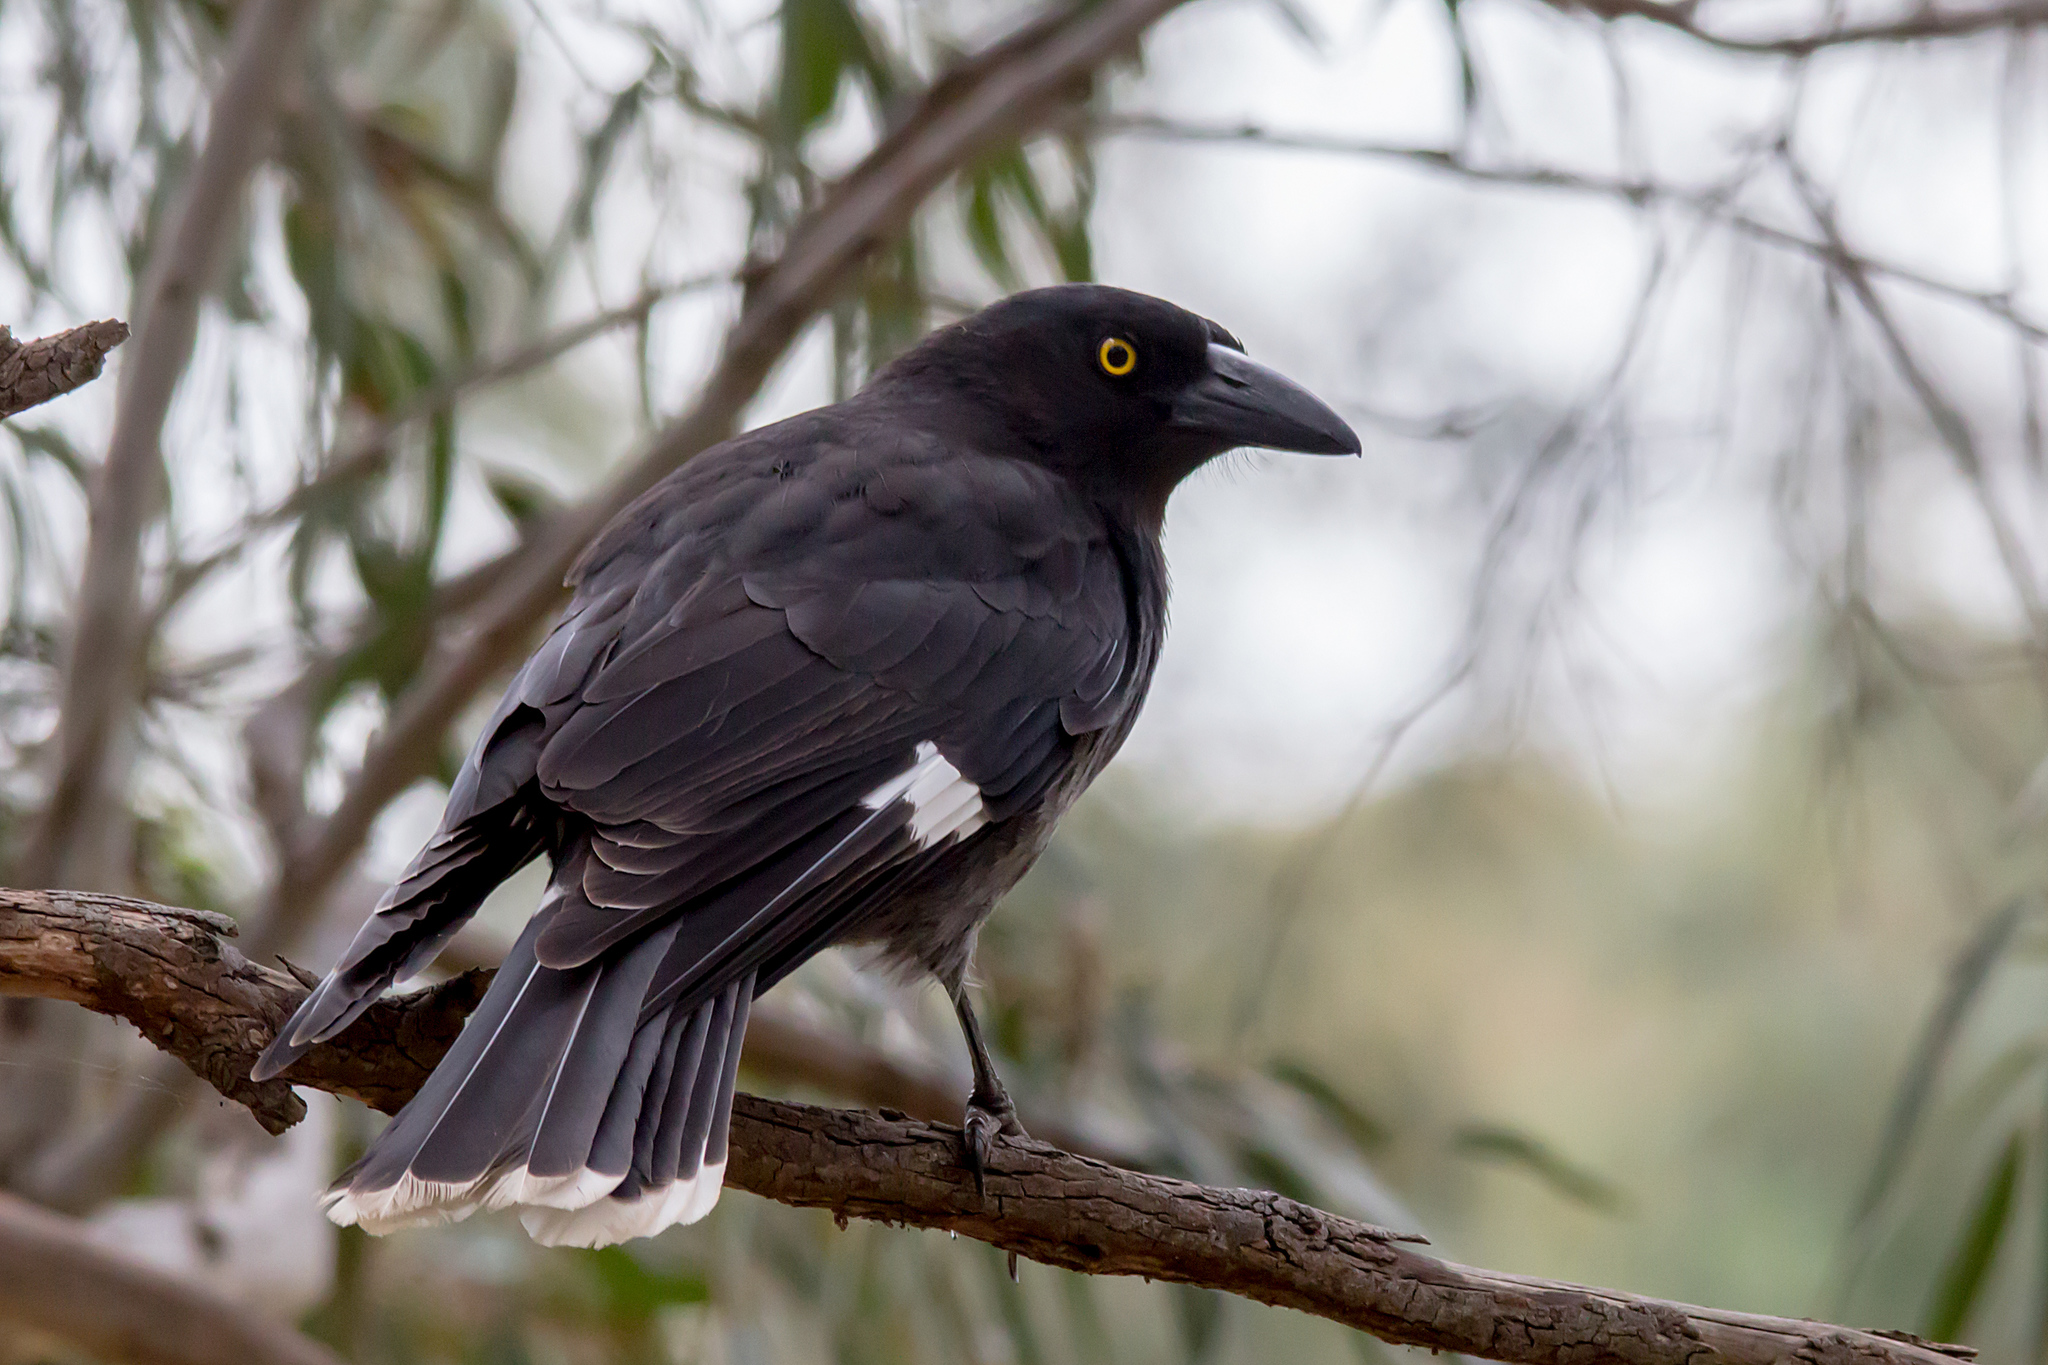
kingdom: Animalia
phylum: Chordata
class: Aves
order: Passeriformes
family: Cracticidae
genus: Strepera
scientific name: Strepera graculina
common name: Pied currawong
